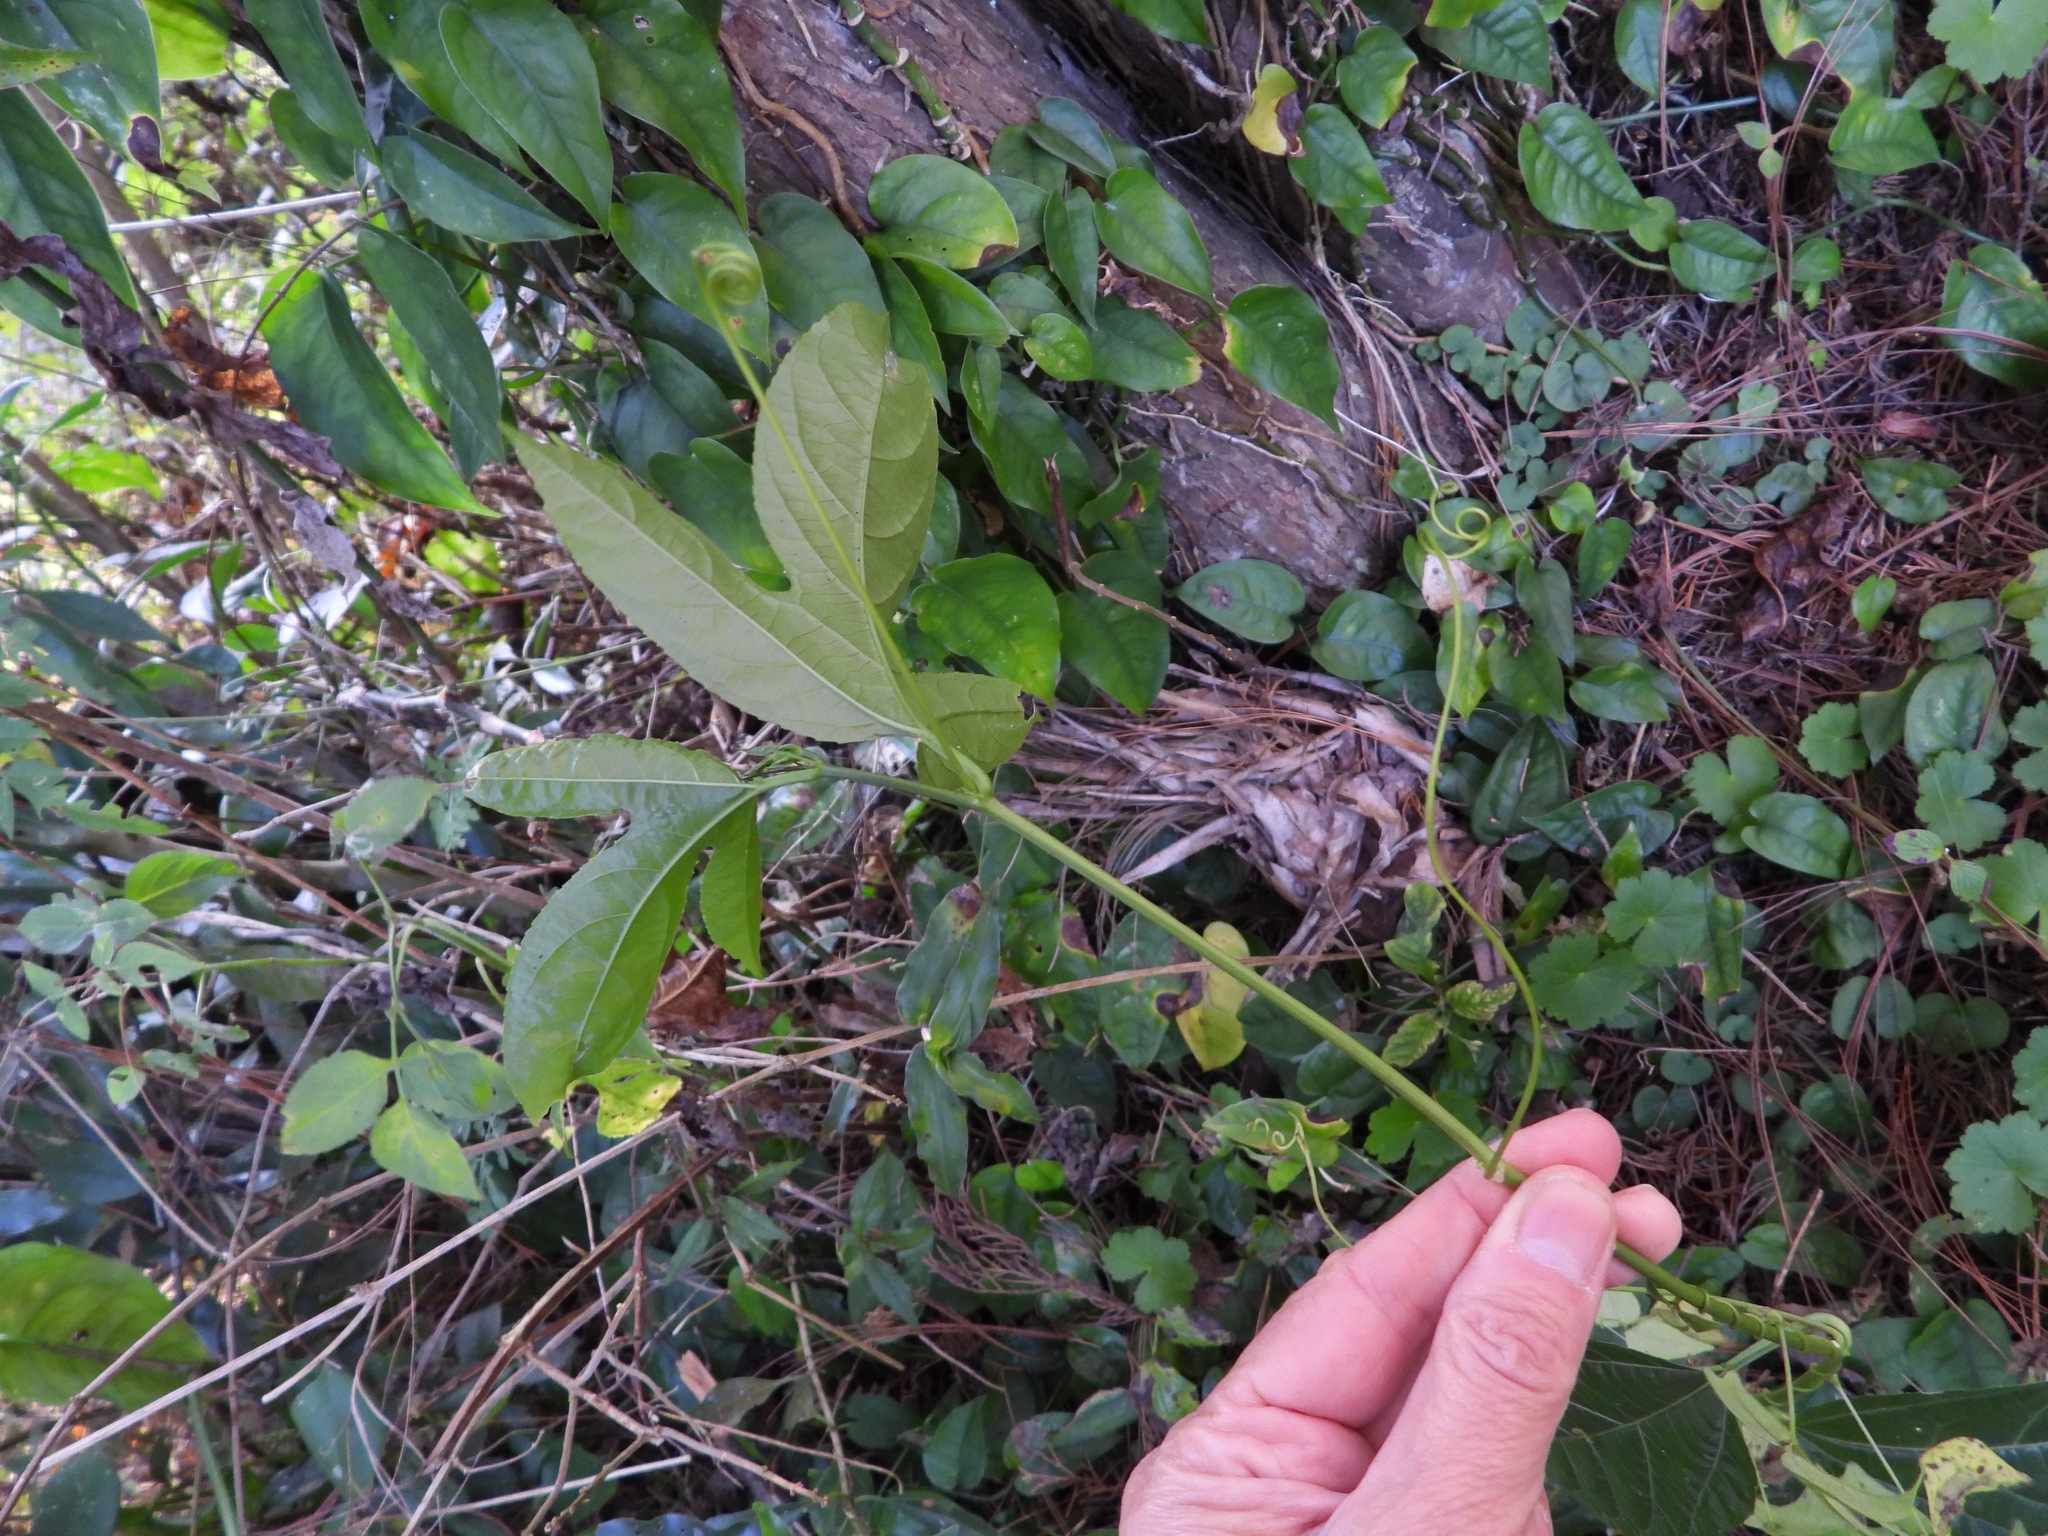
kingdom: Plantae
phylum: Tracheophyta
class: Magnoliopsida
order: Malpighiales
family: Passifloraceae
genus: Passiflora
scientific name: Passiflora edulis
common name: Purple granadilla
